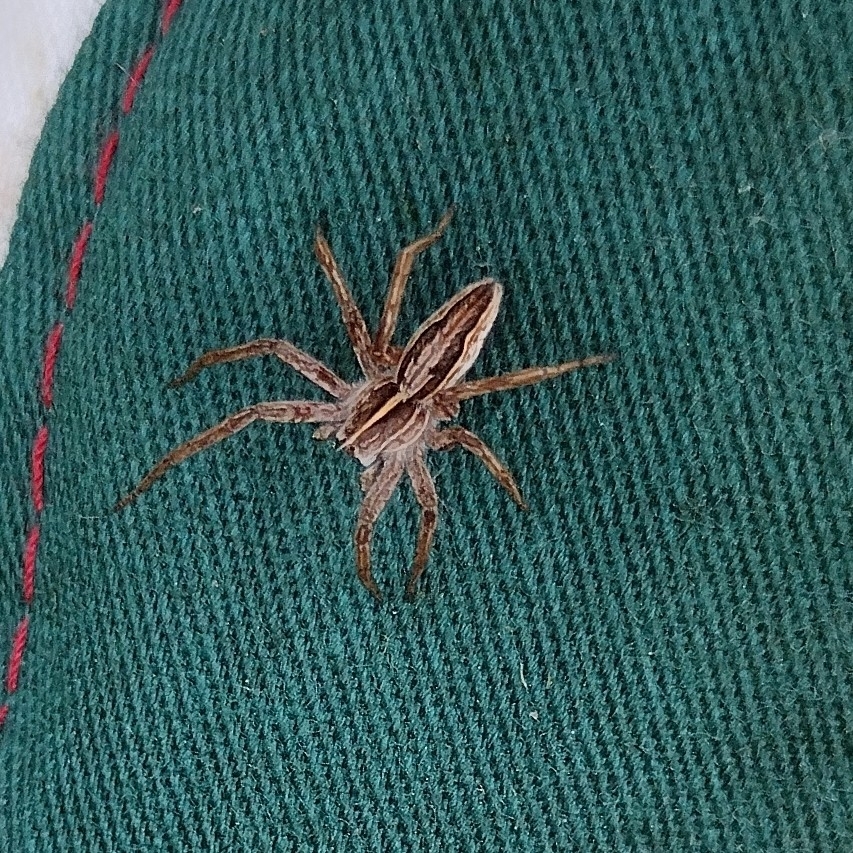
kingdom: Animalia
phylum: Arthropoda
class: Arachnida
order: Araneae
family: Pisauridae
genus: Pisaura
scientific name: Pisaura mirabilis
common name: Tent spider
